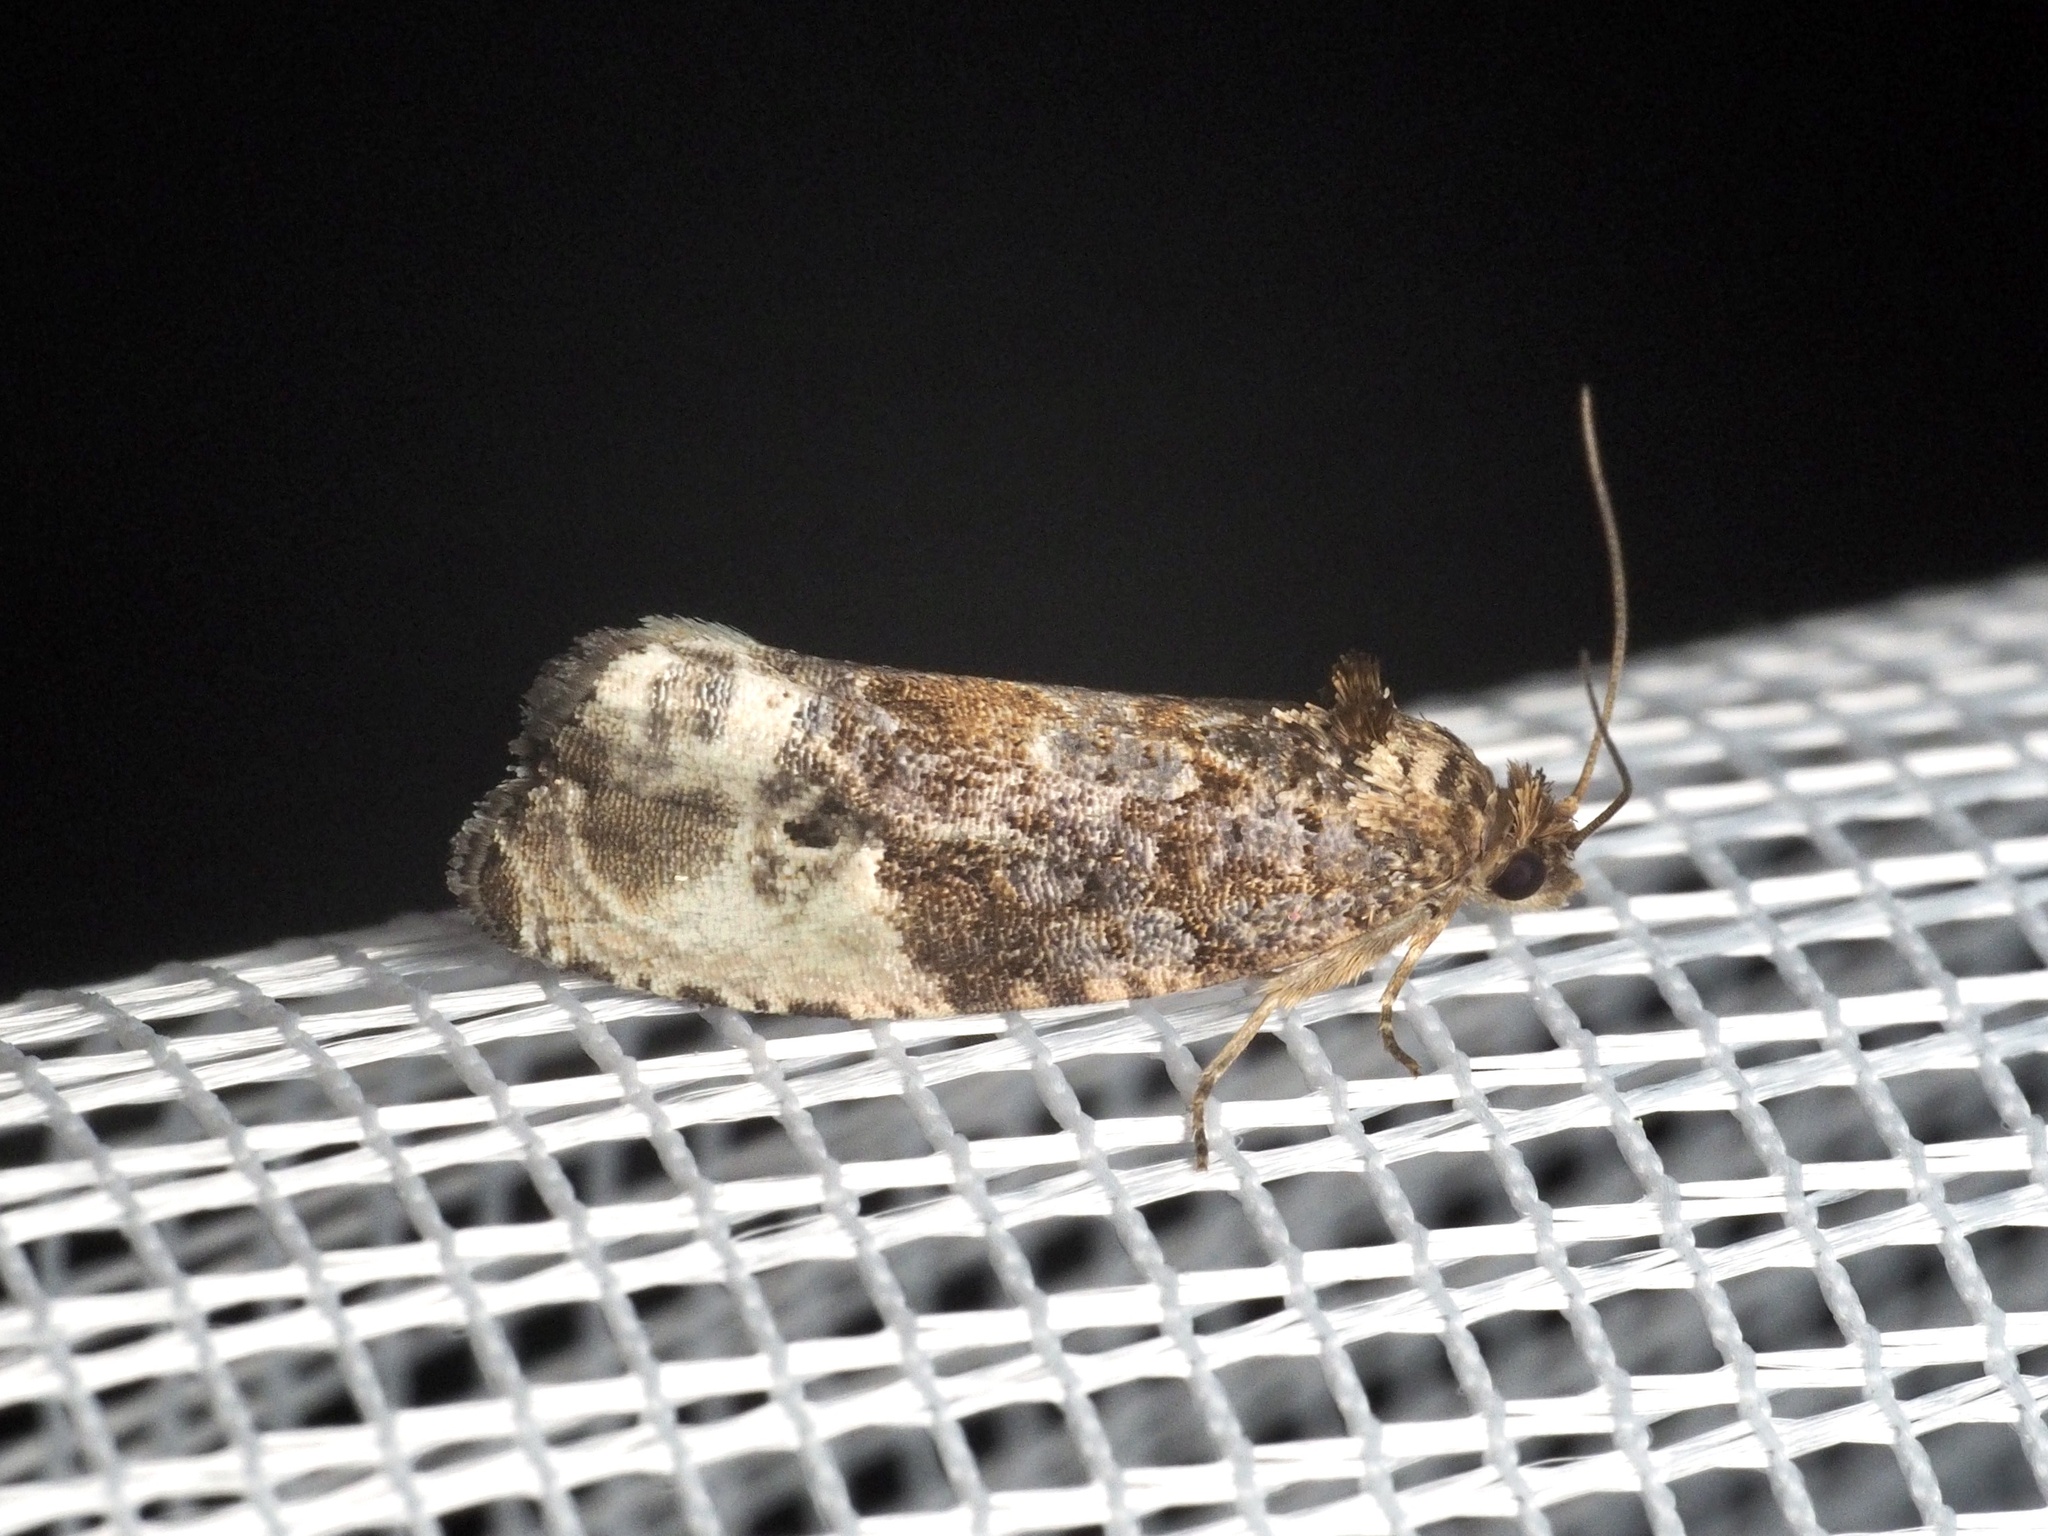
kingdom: Animalia
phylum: Arthropoda
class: Insecta
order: Lepidoptera
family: Tortricidae
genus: Hedya
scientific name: Hedya nubiferana
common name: Marbled orchard tortrix
